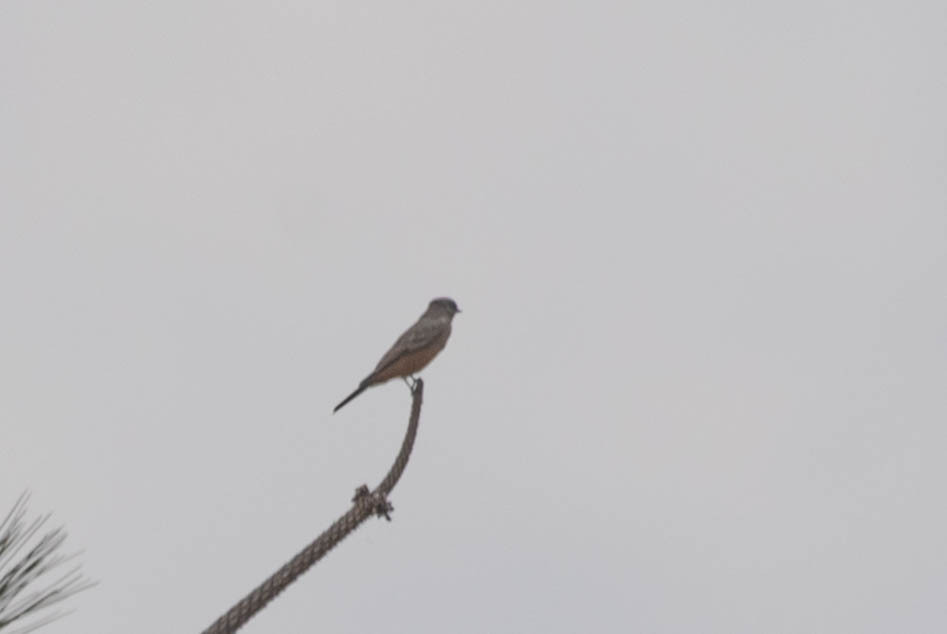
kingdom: Animalia
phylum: Chordata
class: Aves
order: Passeriformes
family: Tyrannidae
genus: Sayornis
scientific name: Sayornis saya
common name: Say's phoebe
